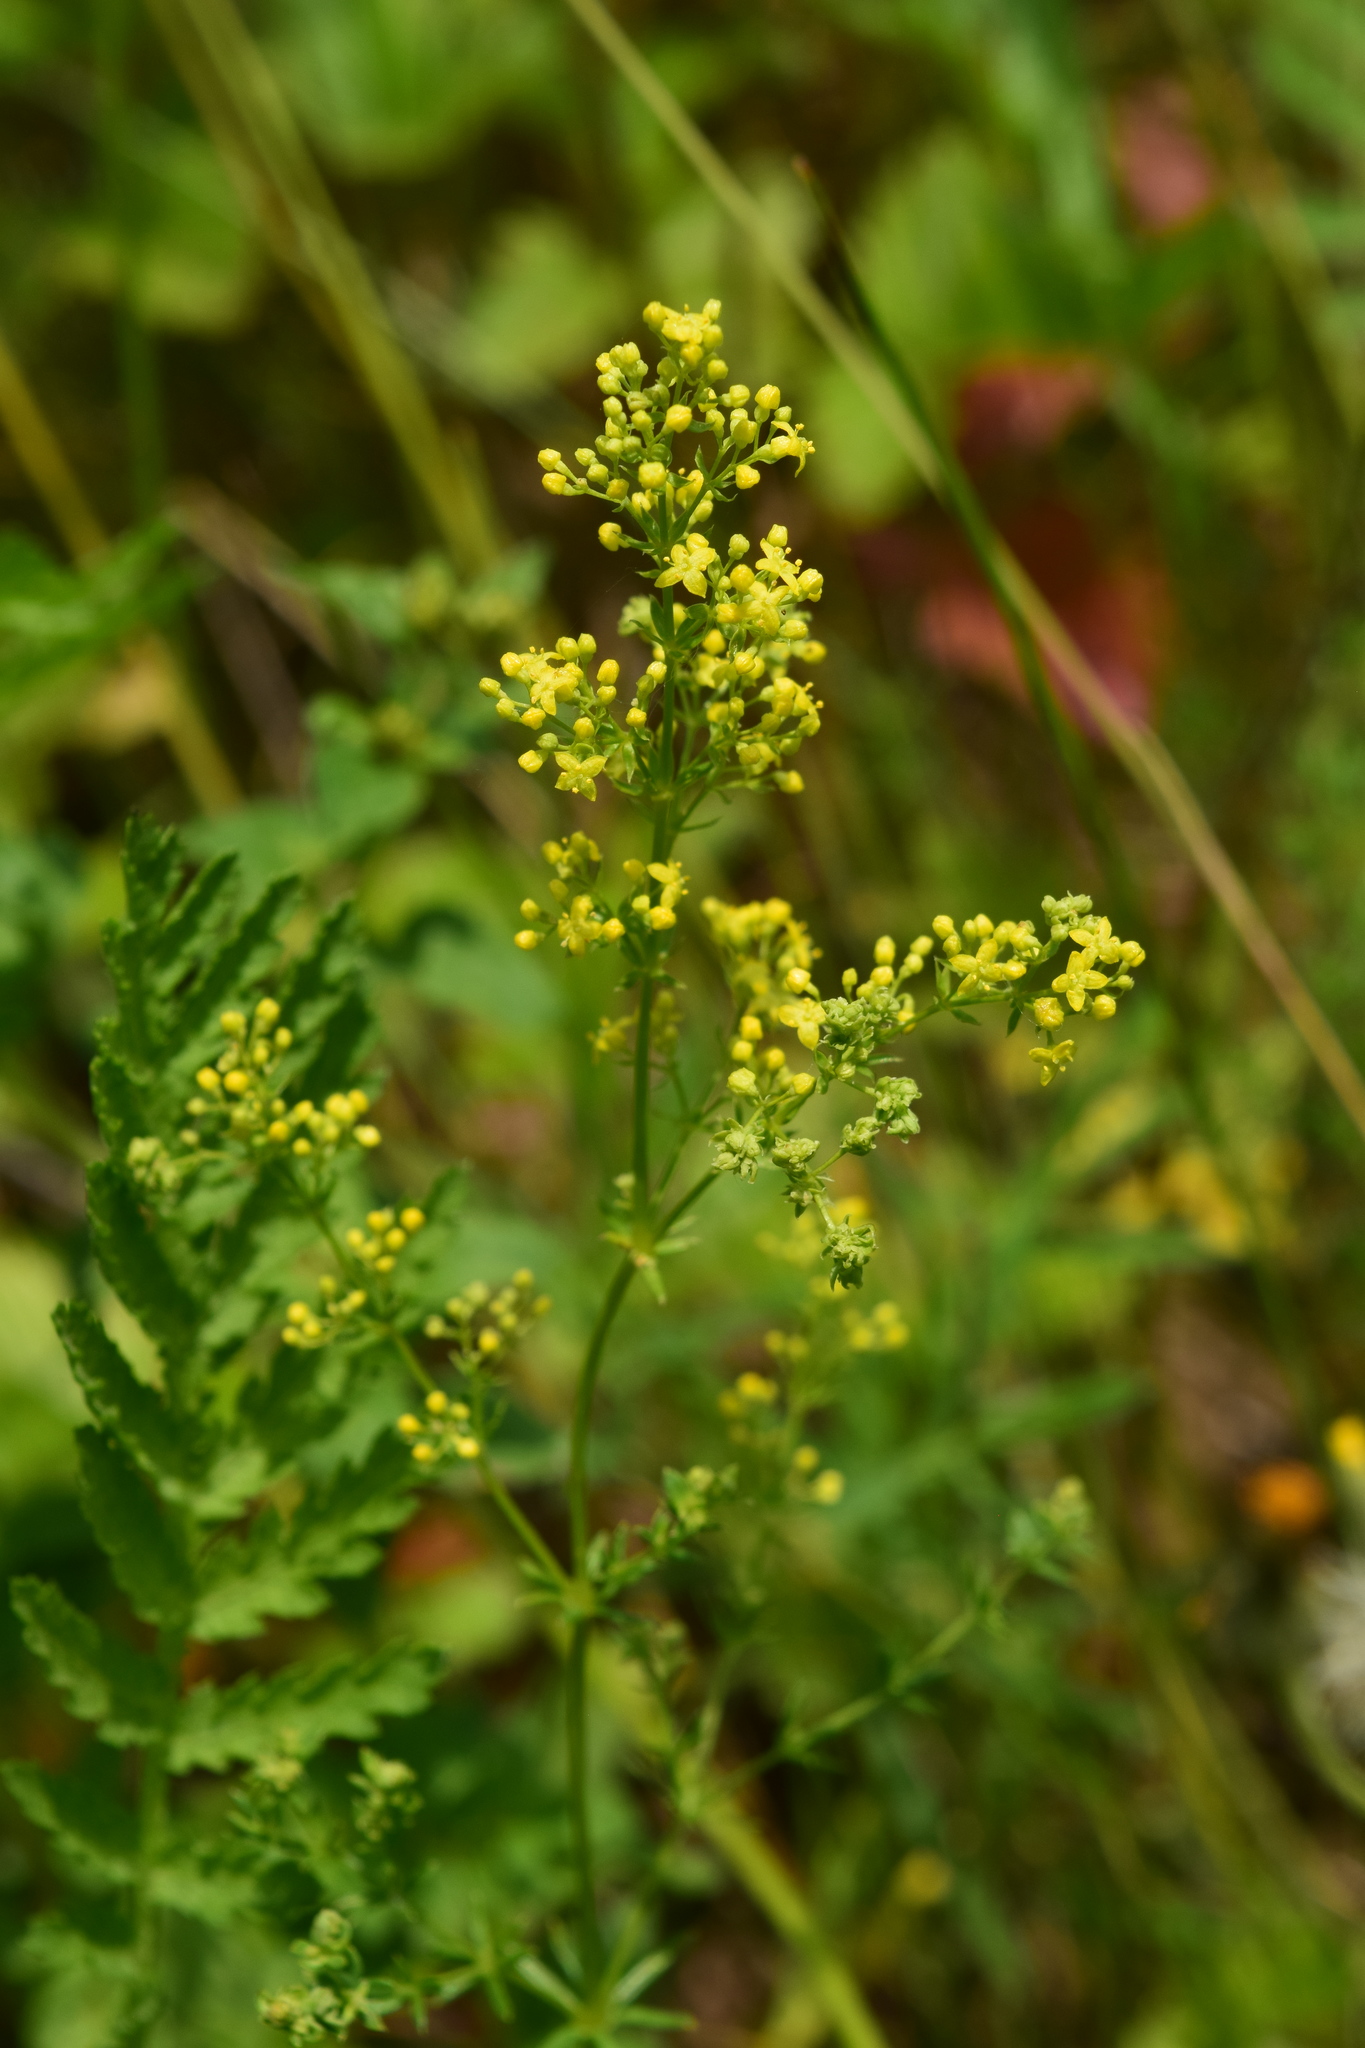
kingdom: Plantae
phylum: Tracheophyta
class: Magnoliopsida
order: Gentianales
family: Rubiaceae
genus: Galium
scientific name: Galium verum
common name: Lady's bedstraw
